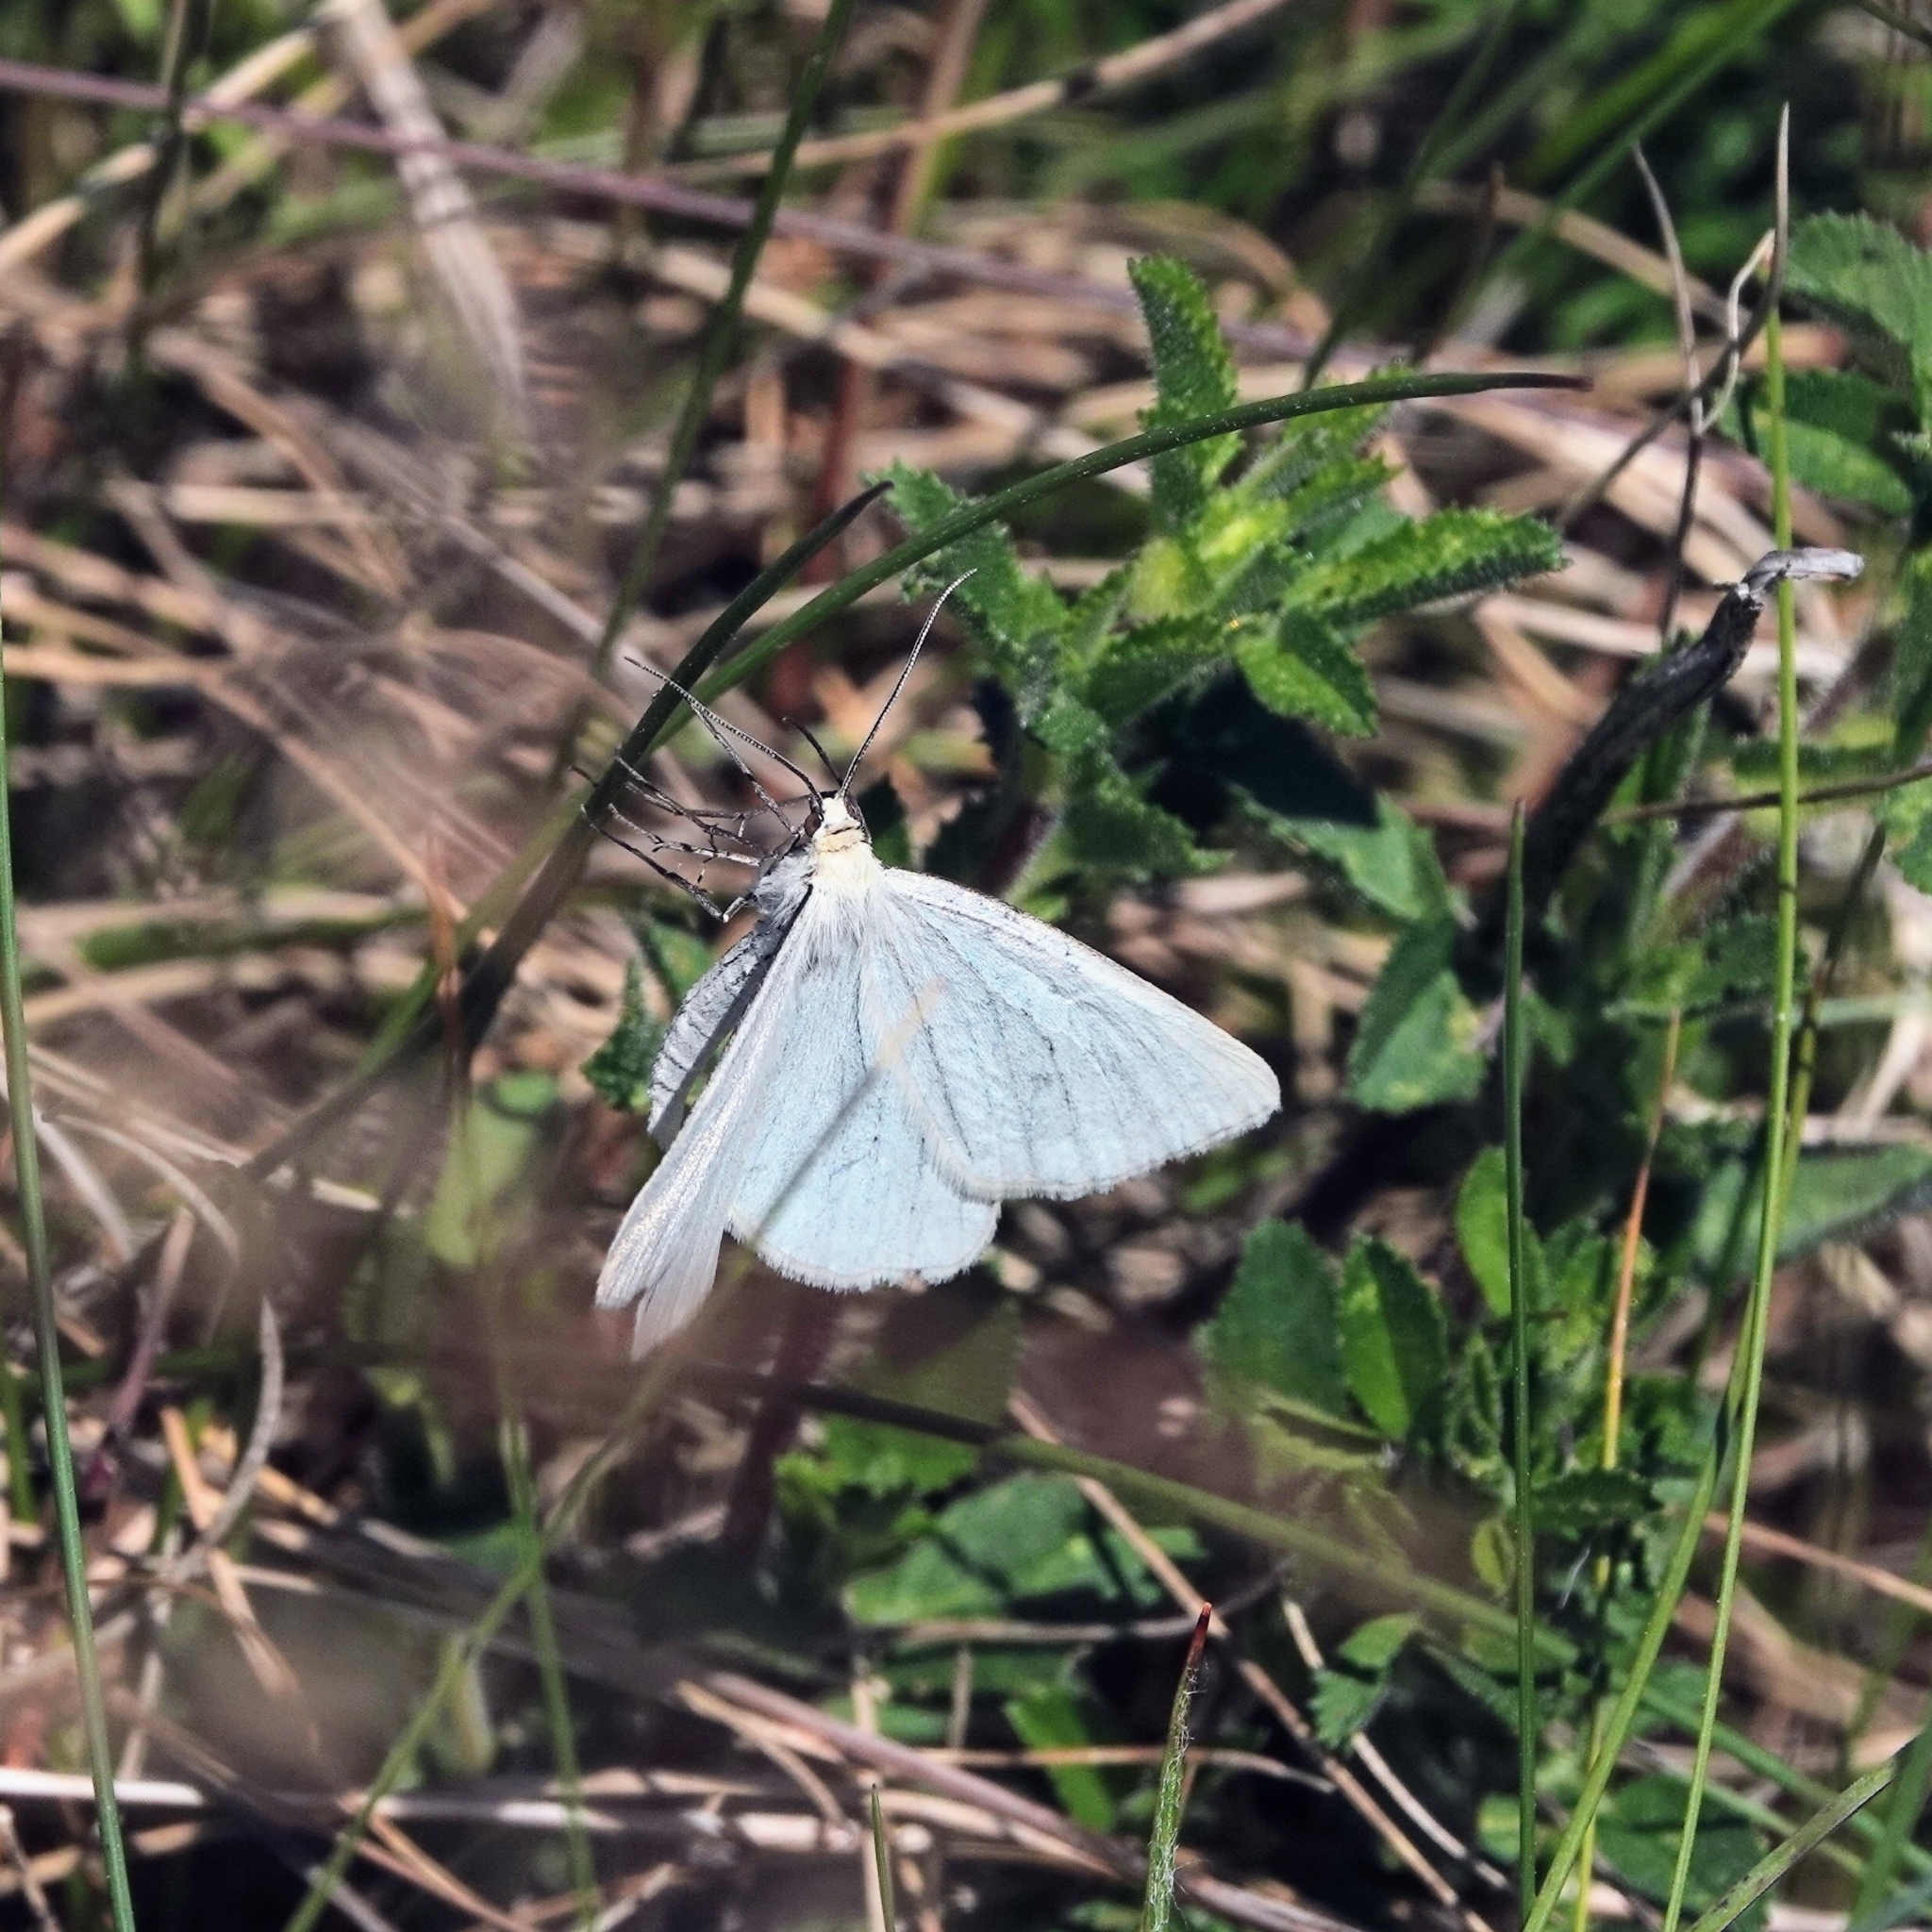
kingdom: Animalia
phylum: Arthropoda
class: Insecta
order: Lepidoptera
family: Geometridae
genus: Siona
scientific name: Siona lineata
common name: Black-veined moth
